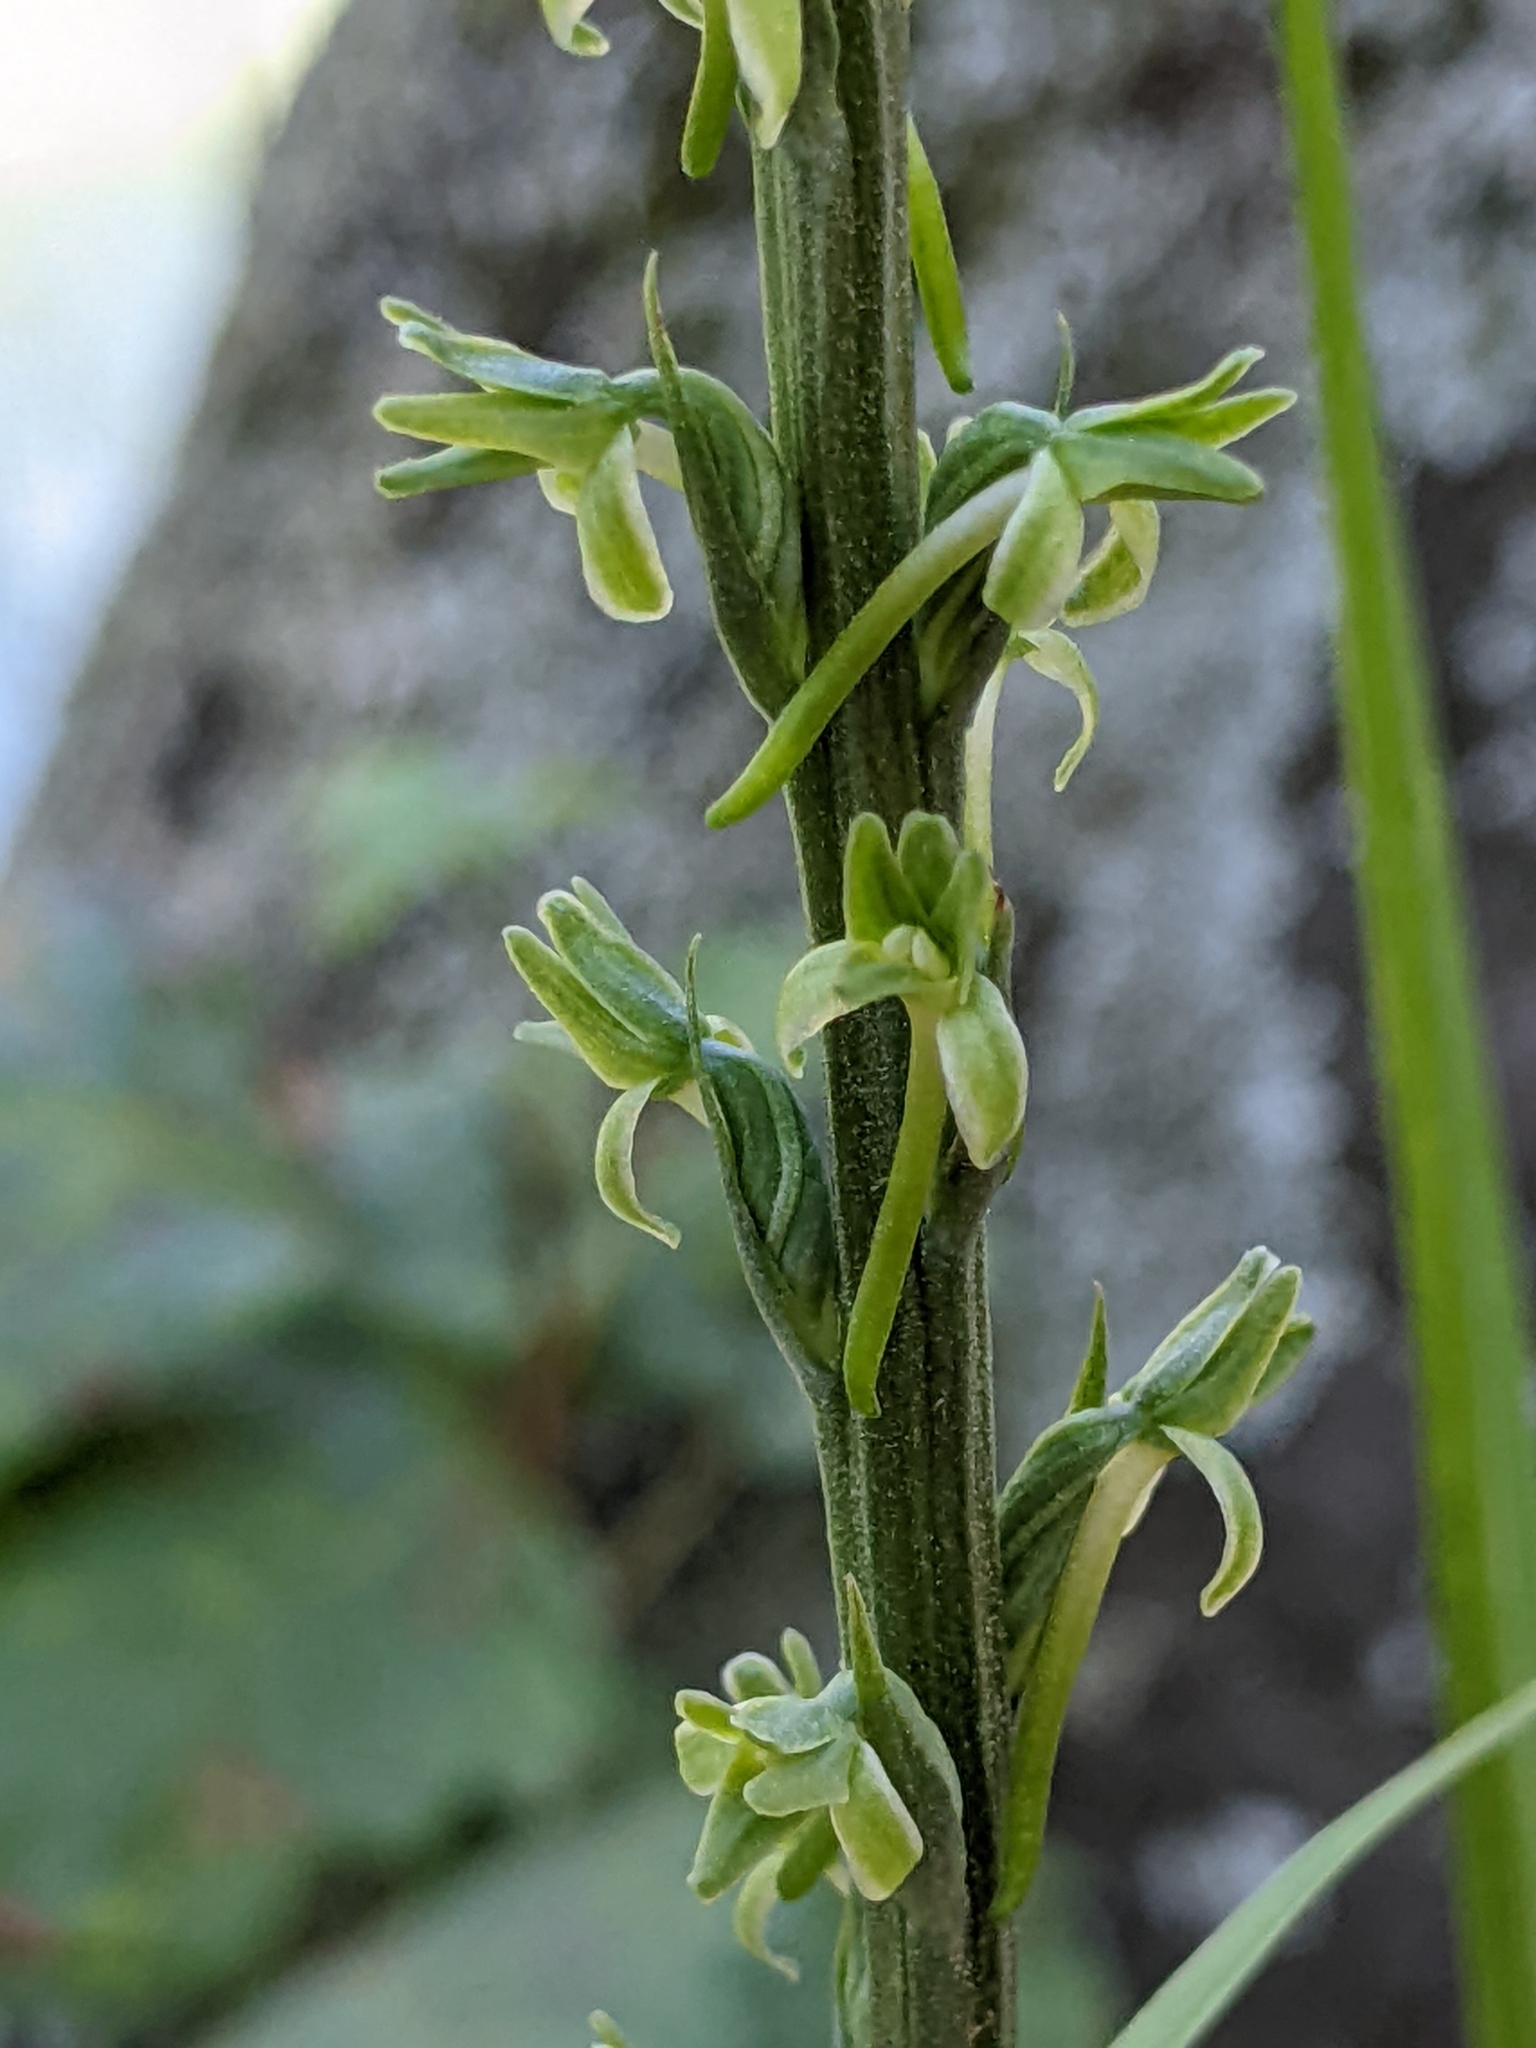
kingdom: Plantae
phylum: Tracheophyta
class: Liliopsida
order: Asparagales
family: Orchidaceae
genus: Platanthera
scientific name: Platanthera elongata
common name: Dense-flowered rein orchid
